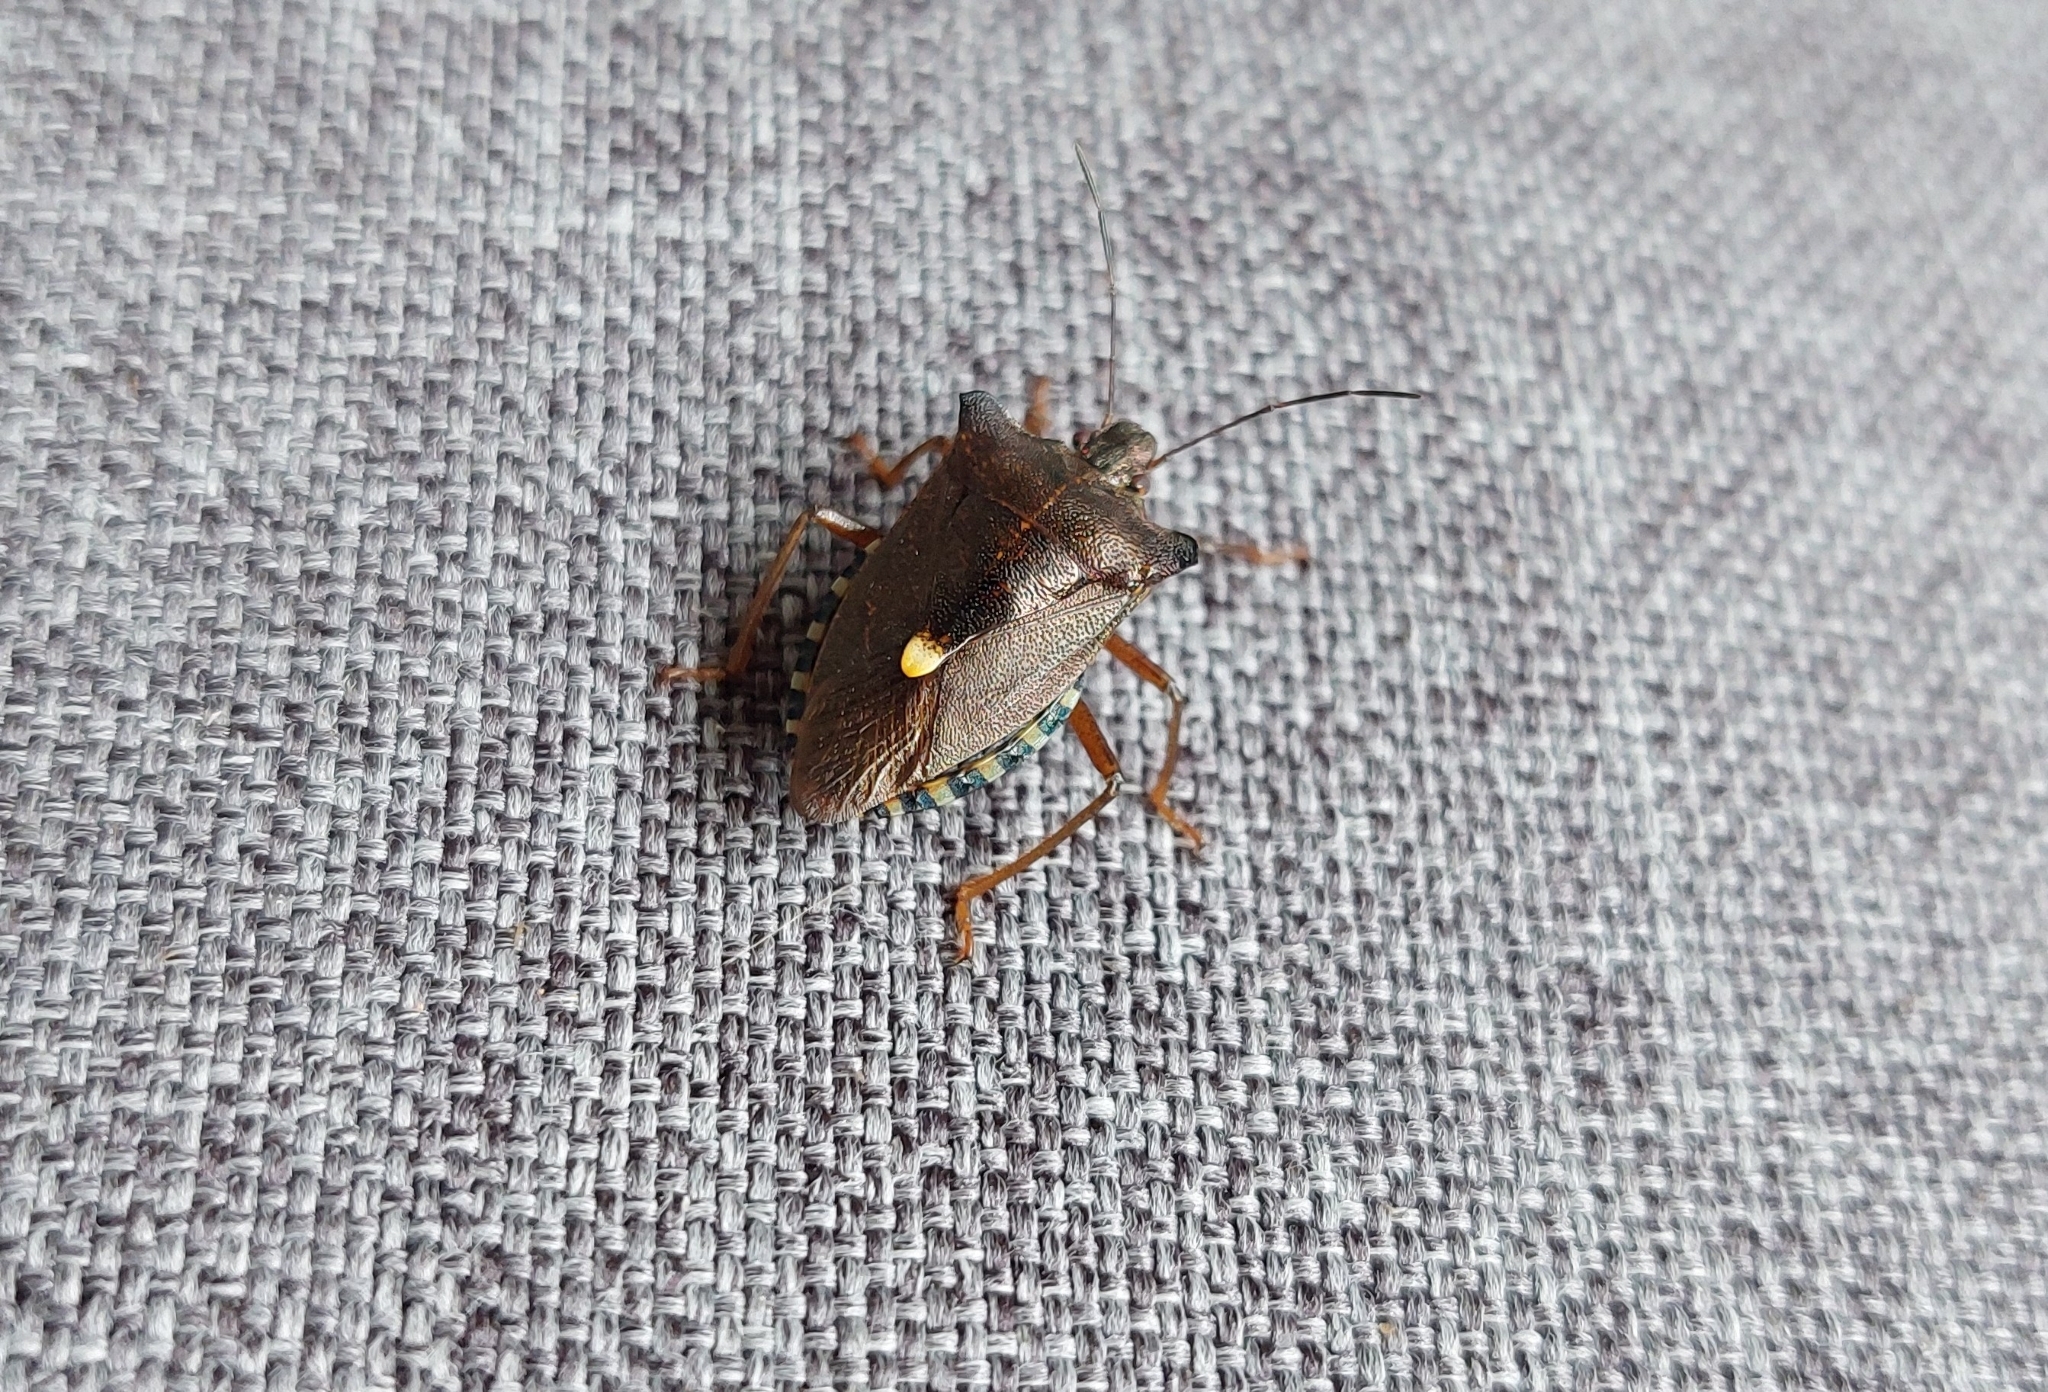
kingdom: Animalia
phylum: Arthropoda
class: Insecta
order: Hemiptera
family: Pentatomidae
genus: Pentatoma
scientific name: Pentatoma rufipes
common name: Forest bug
